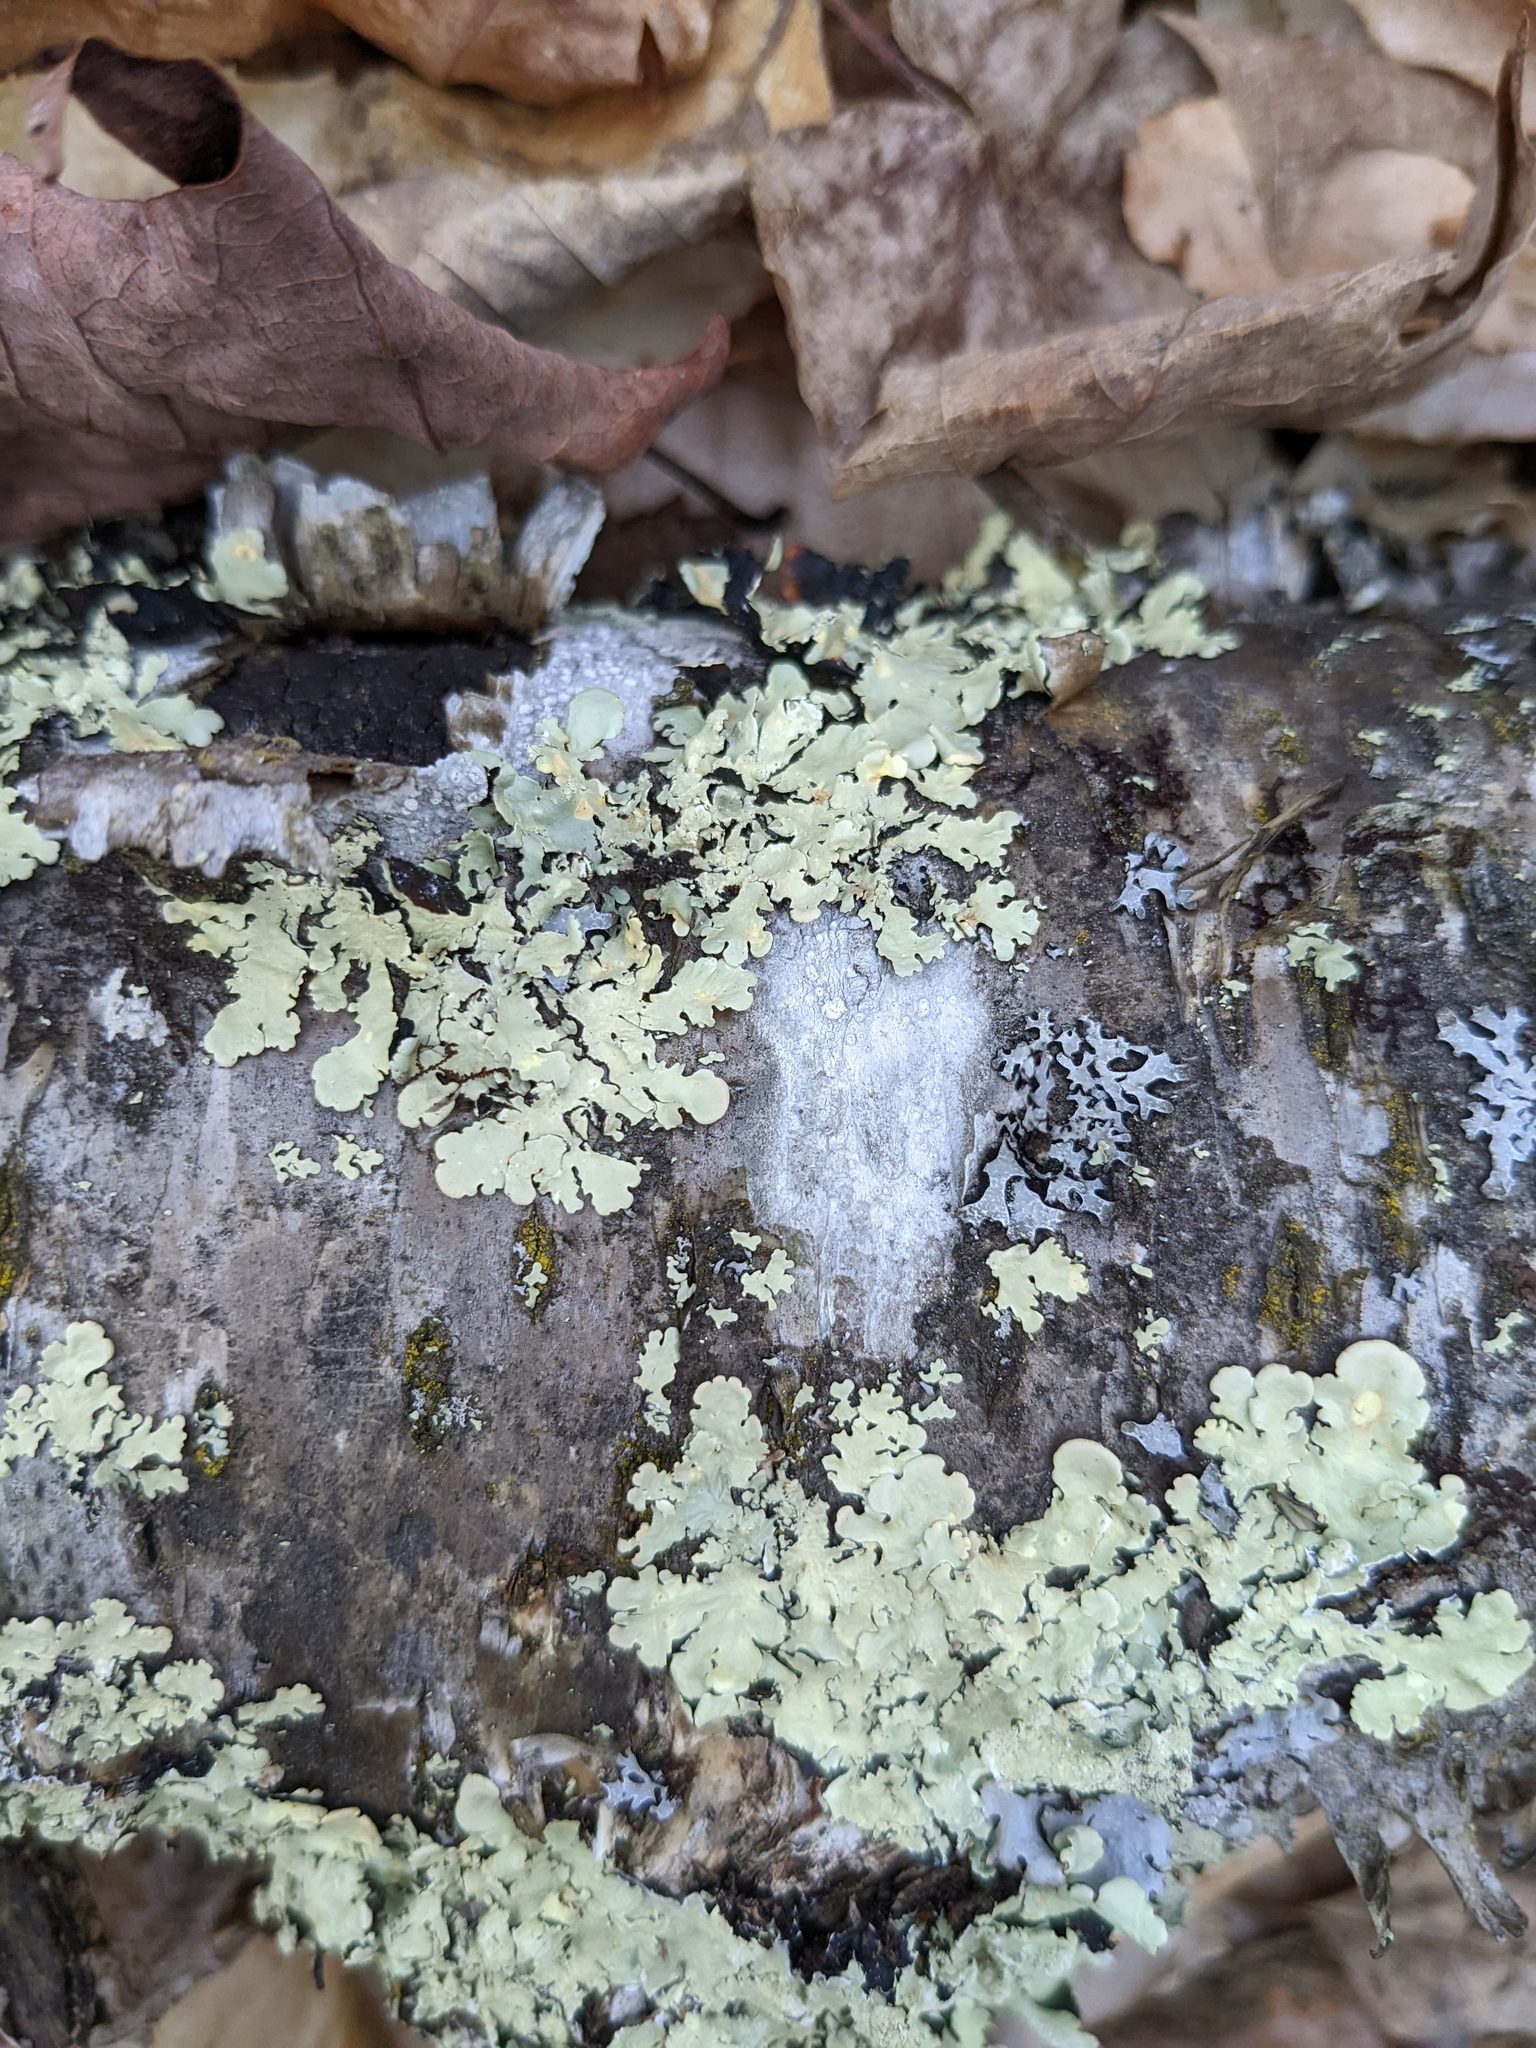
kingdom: Fungi
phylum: Ascomycota
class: Lecanoromycetes
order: Lecanorales
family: Parmeliaceae
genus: Flavoparmelia
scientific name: Flavoparmelia caperata
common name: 40-mile per hour lichen
